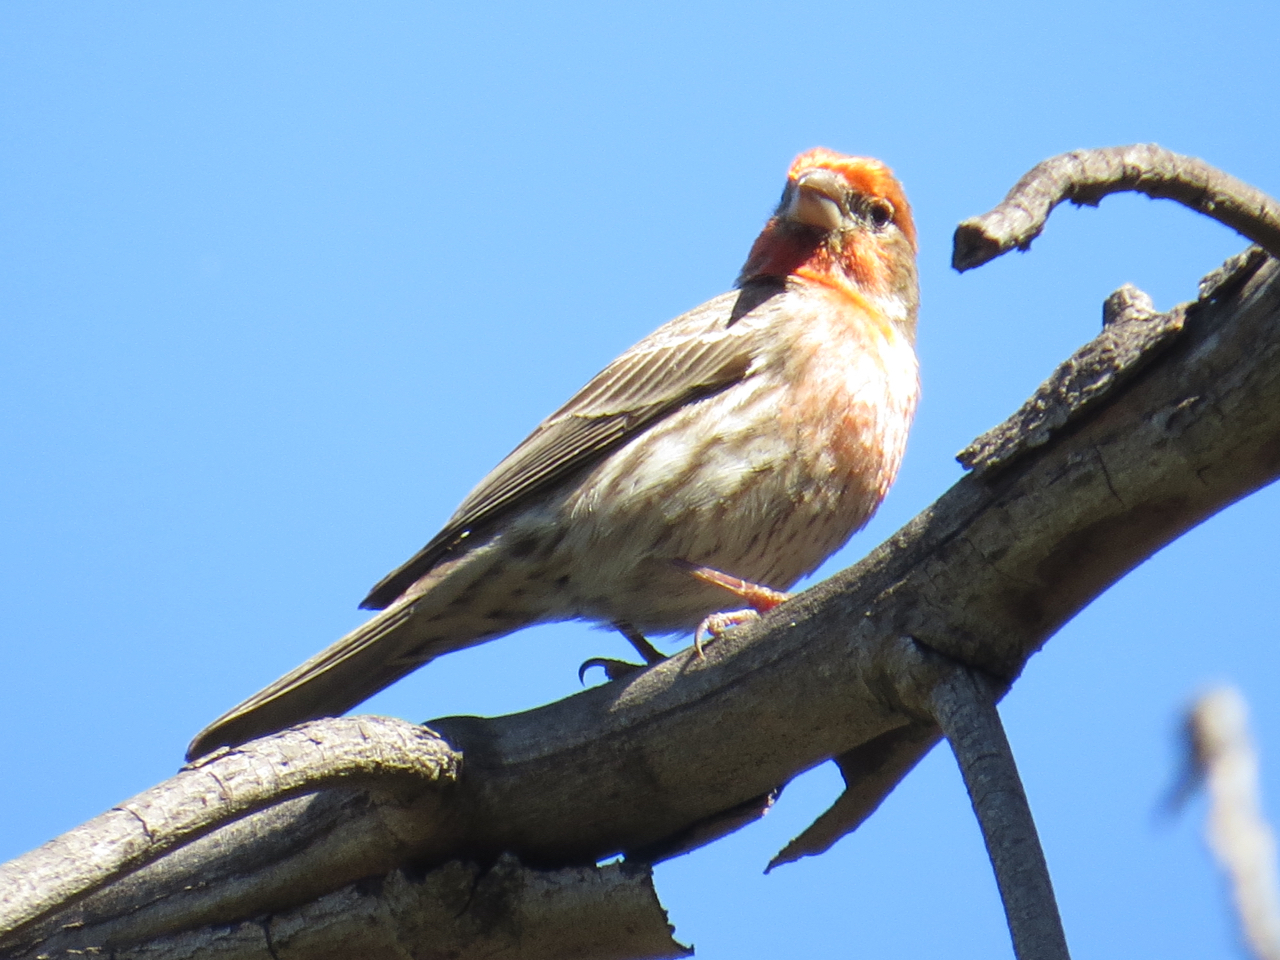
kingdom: Animalia
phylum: Chordata
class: Aves
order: Passeriformes
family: Fringillidae
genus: Haemorhous
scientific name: Haemorhous mexicanus
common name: House finch
